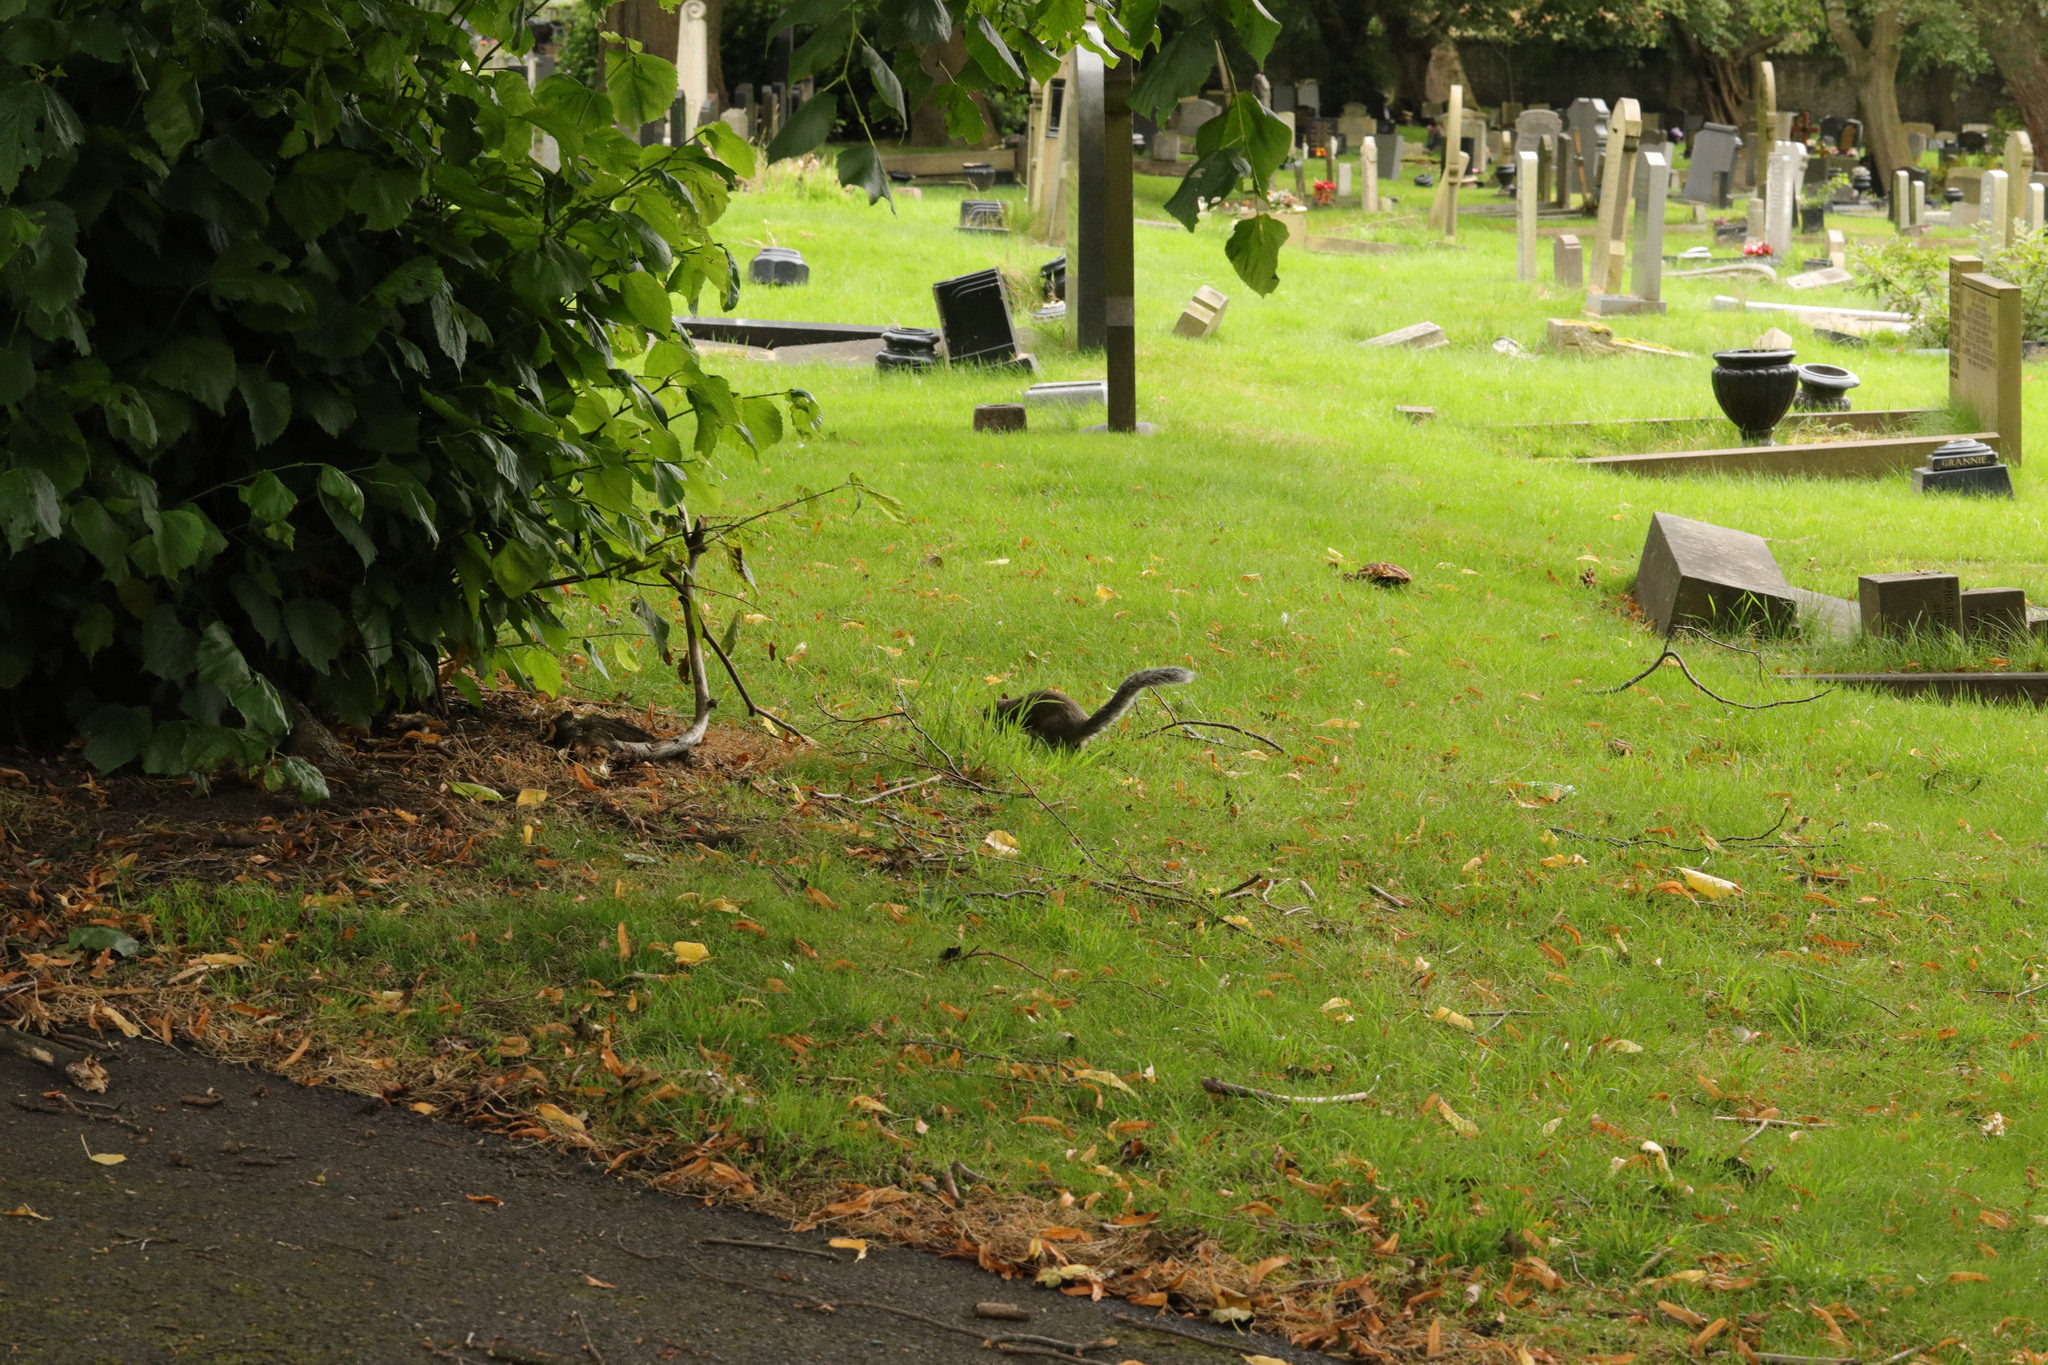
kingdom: Animalia
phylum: Chordata
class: Mammalia
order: Rodentia
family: Sciuridae
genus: Sciurus
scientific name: Sciurus carolinensis
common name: Eastern gray squirrel
